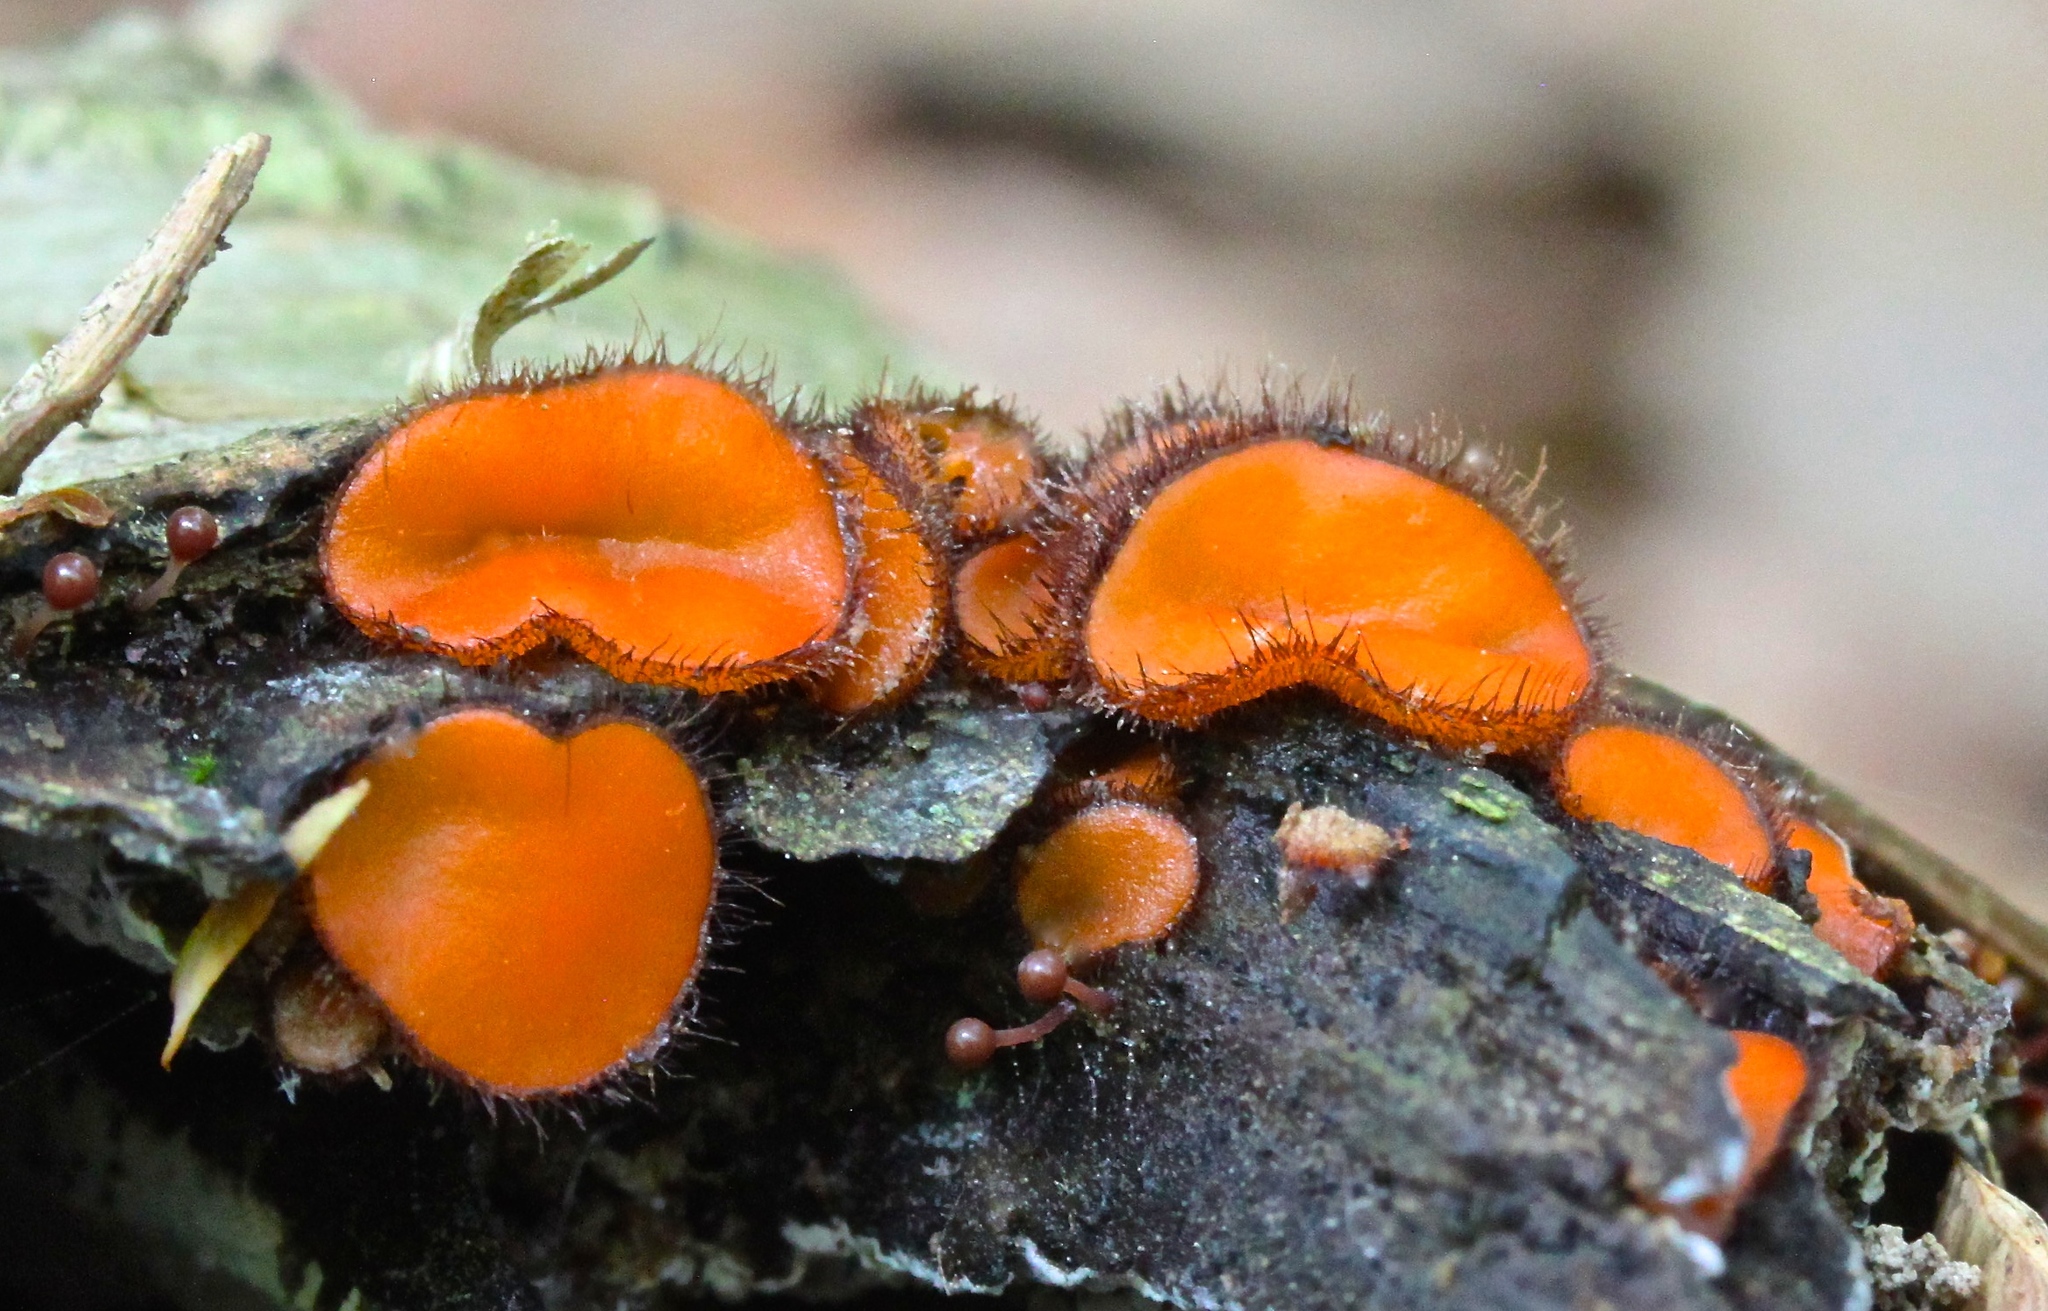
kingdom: Fungi
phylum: Ascomycota
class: Pezizomycetes
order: Pezizales
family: Pyronemataceae
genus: Scutellinia
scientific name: Scutellinia scutellata
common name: Common eyelash
